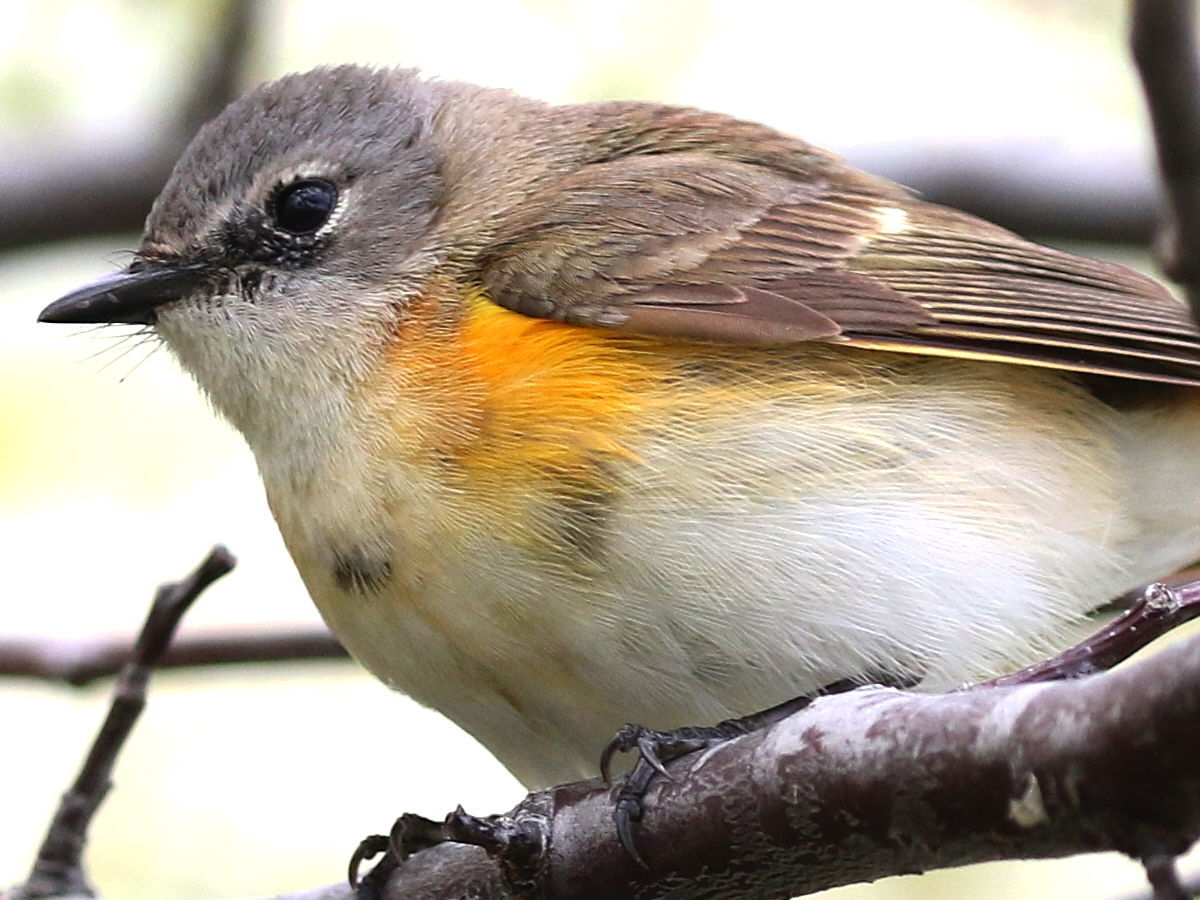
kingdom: Animalia
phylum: Chordata
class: Aves
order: Passeriformes
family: Parulidae
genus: Setophaga
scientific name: Setophaga ruticilla
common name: American redstart
